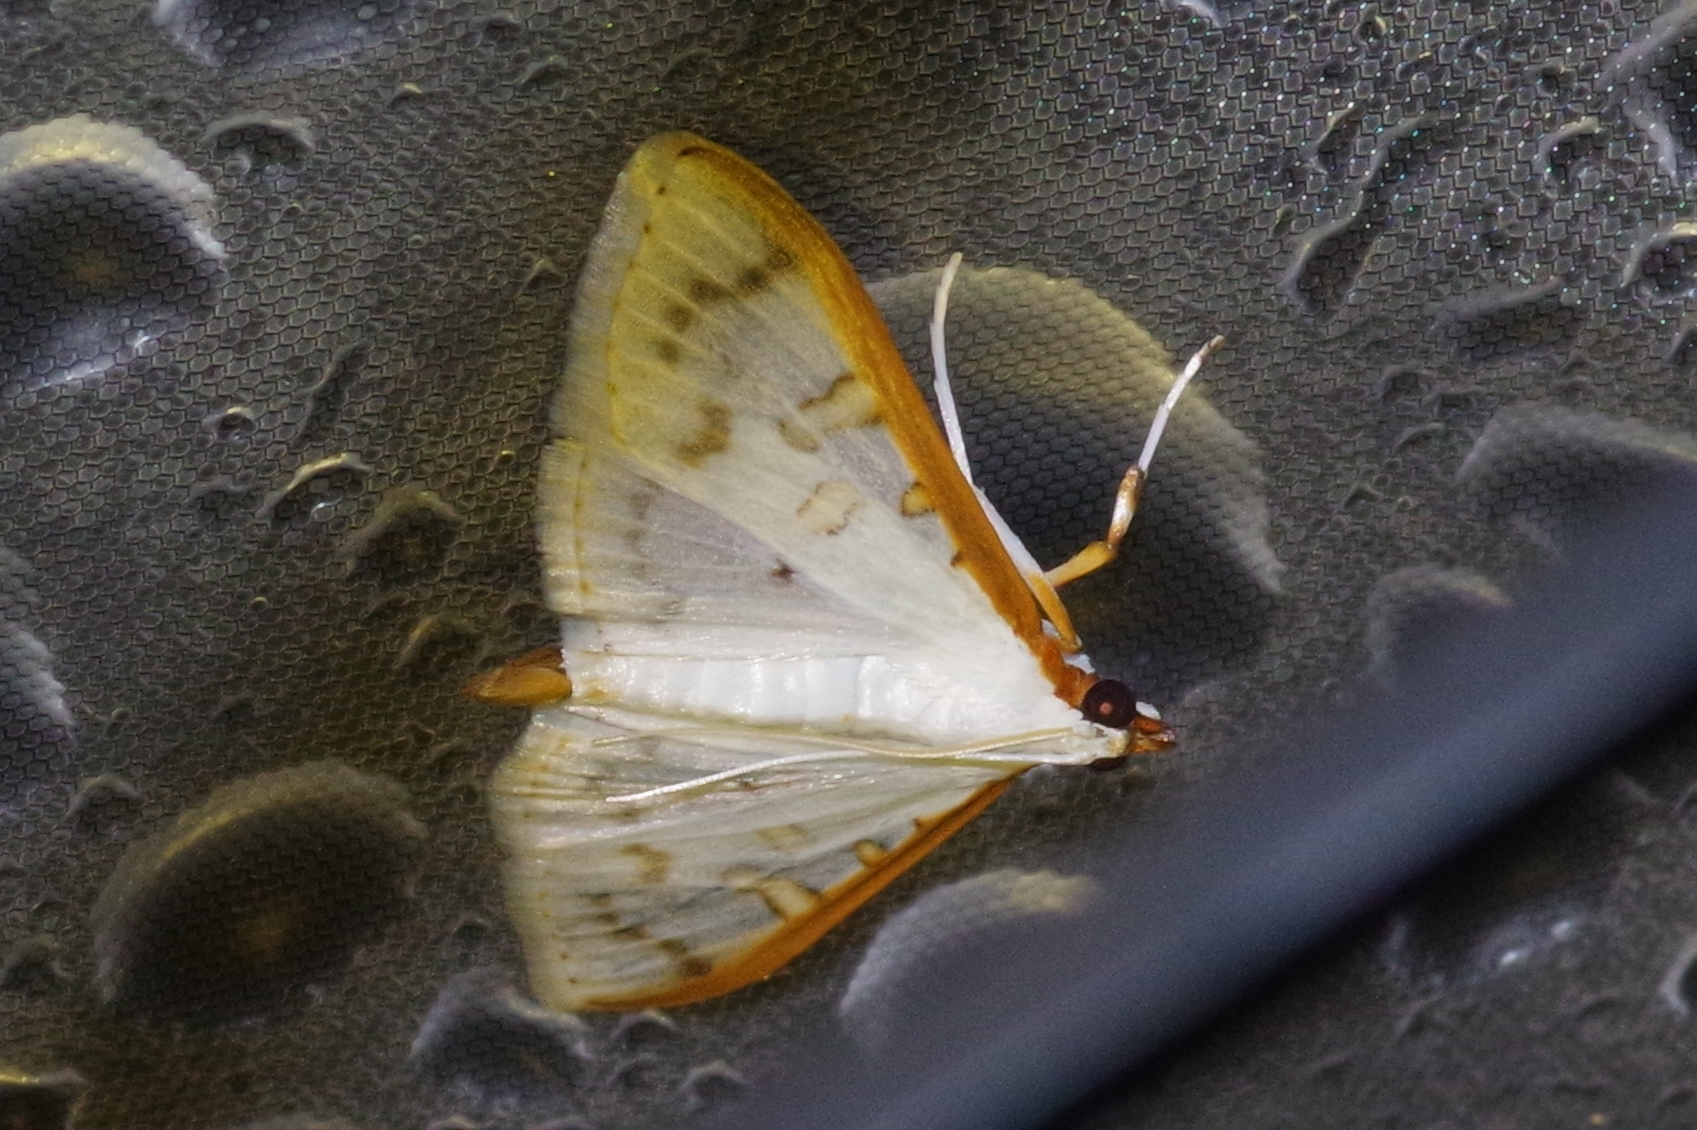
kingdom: Animalia
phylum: Arthropoda
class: Insecta
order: Lepidoptera
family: Crambidae
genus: Palpita
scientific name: Palpita homalia
